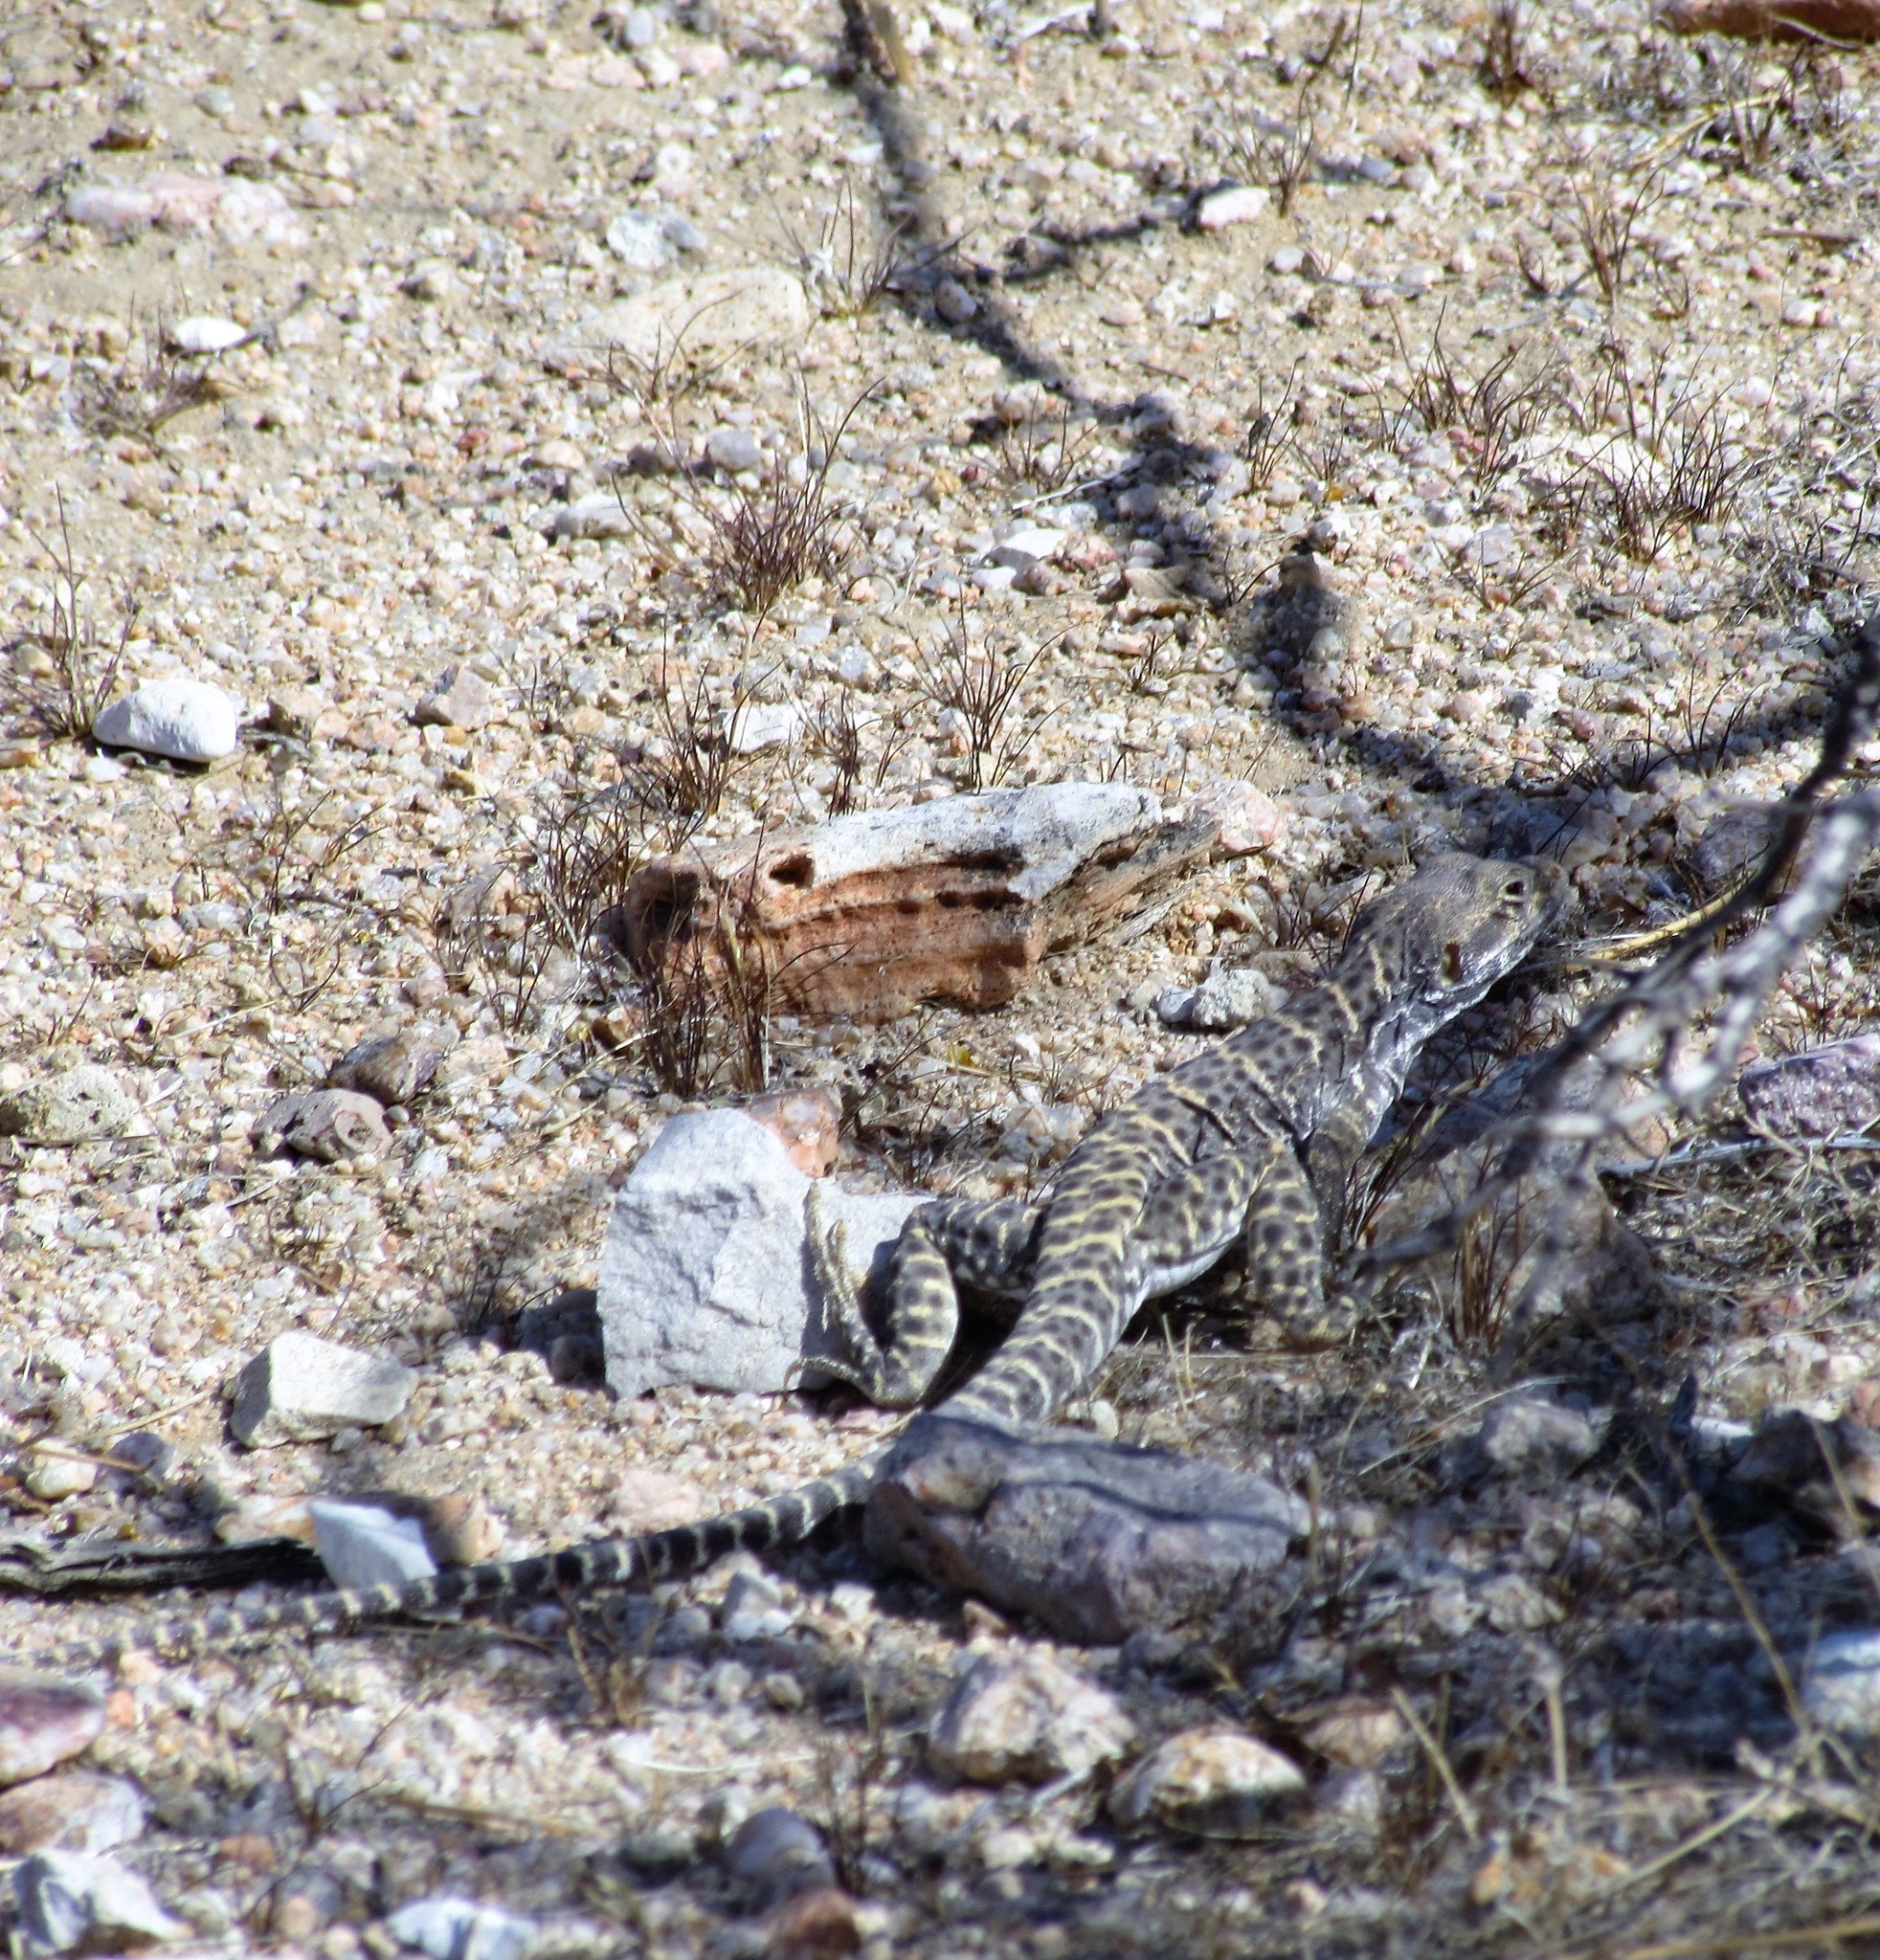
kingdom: Animalia
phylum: Chordata
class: Squamata
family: Crotaphytidae
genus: Gambelia
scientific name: Gambelia wislizenii
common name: Longnose leopard lizard
